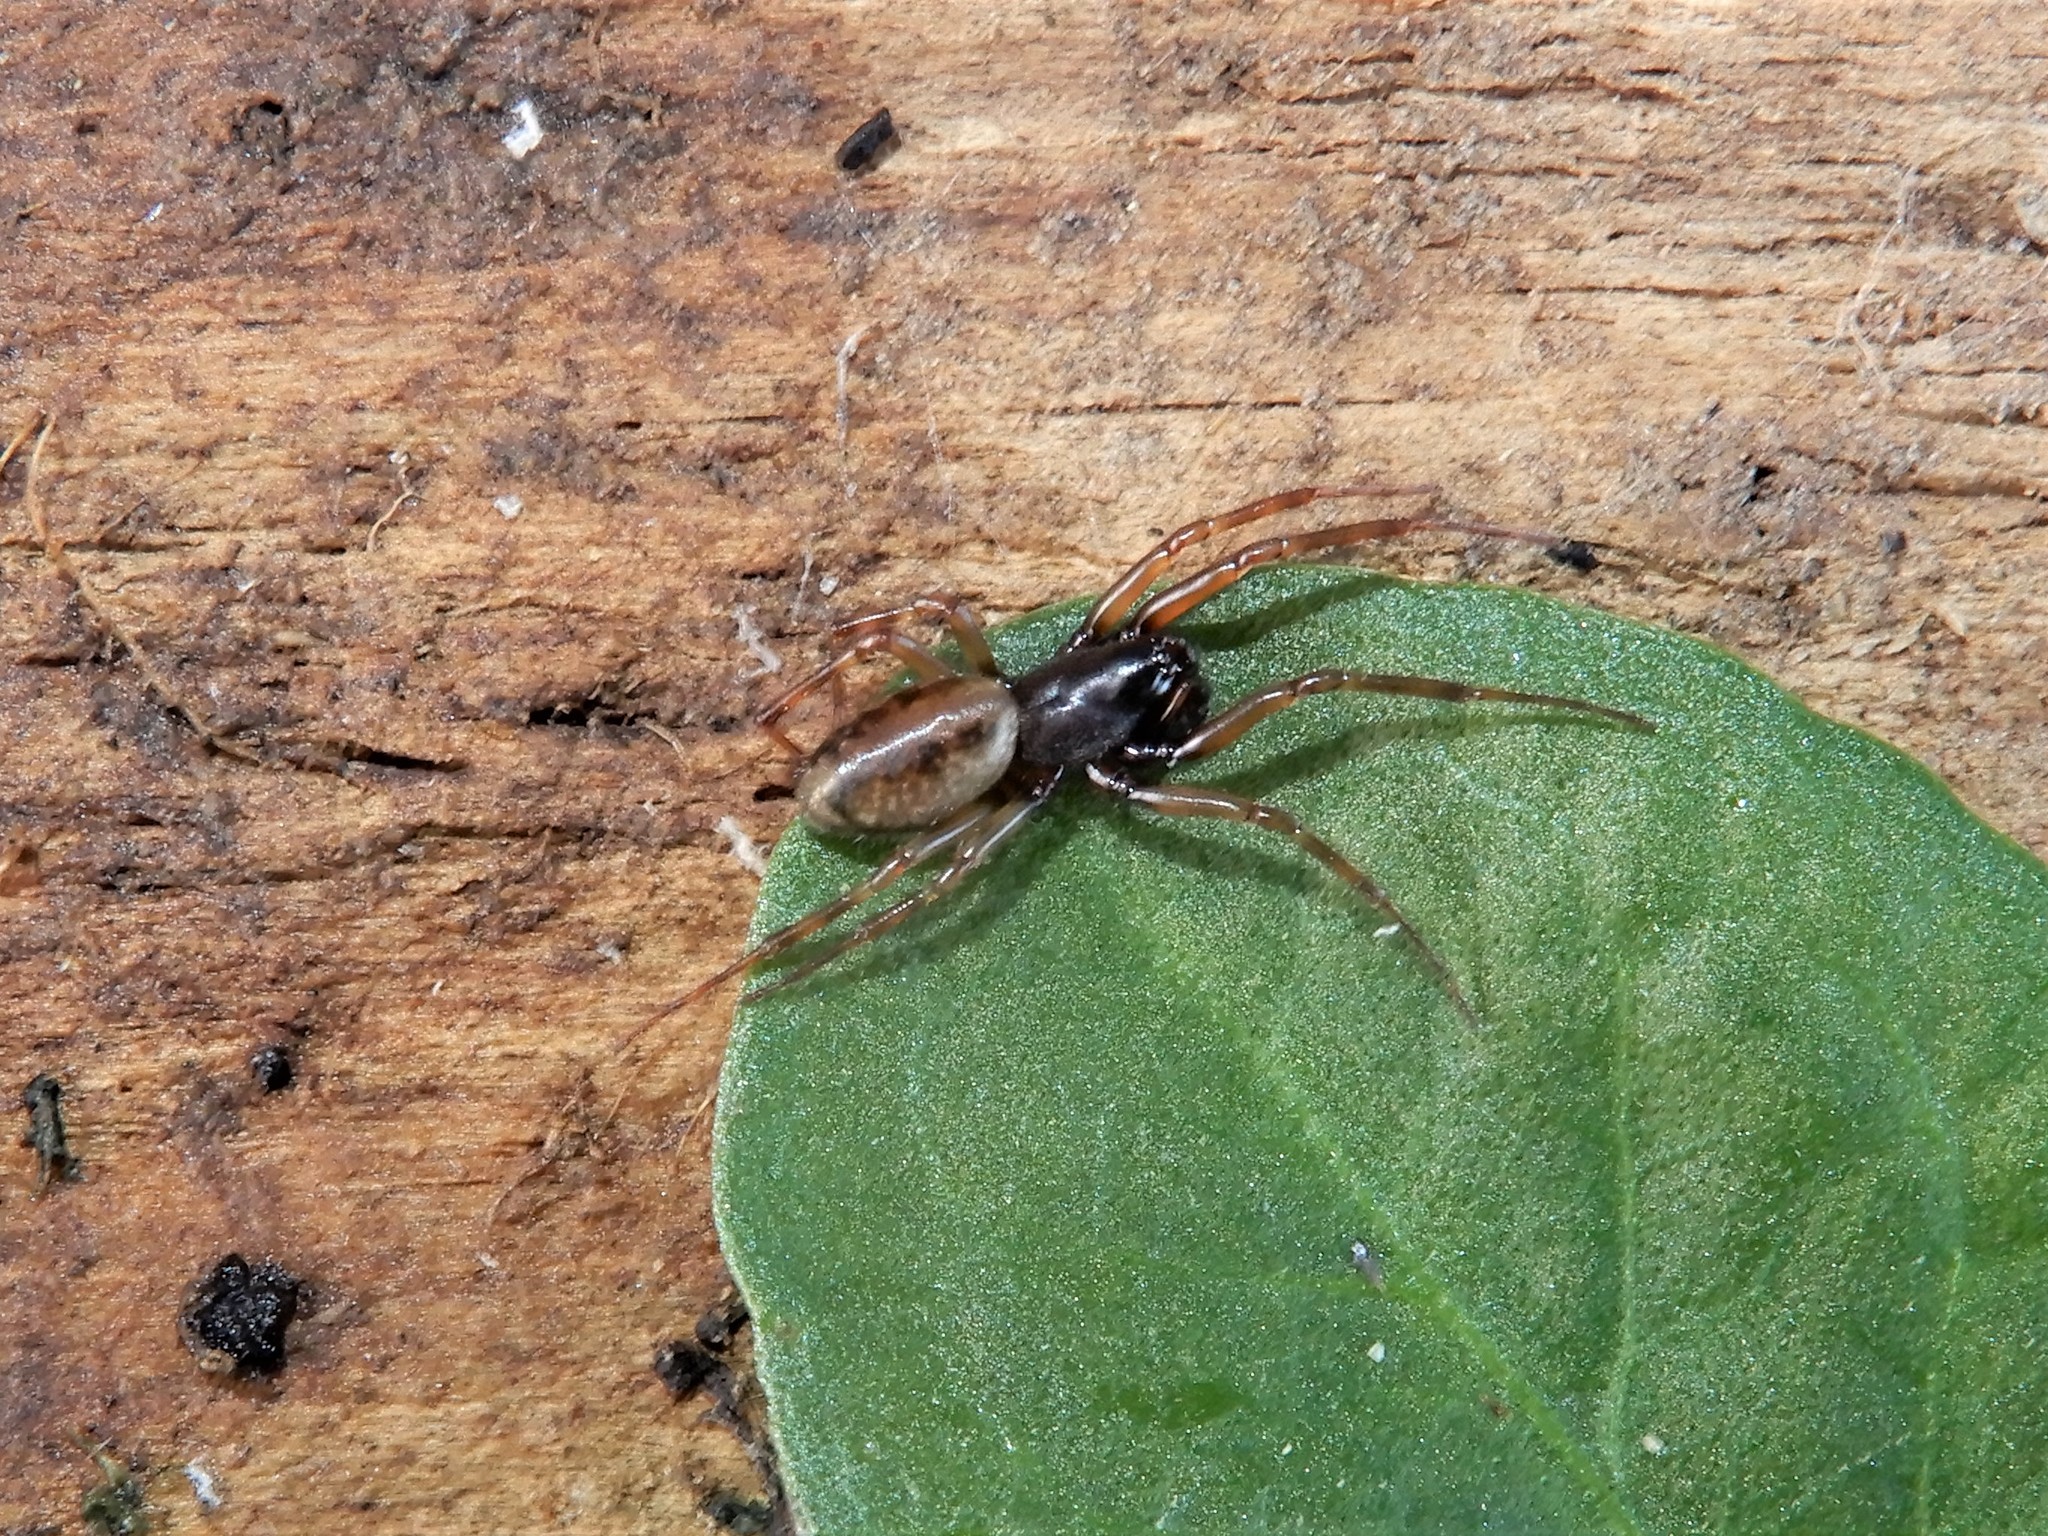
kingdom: Animalia
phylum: Arthropoda
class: Arachnida
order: Araneae
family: Linyphiidae
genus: Haplinis
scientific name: Haplinis attenuata
